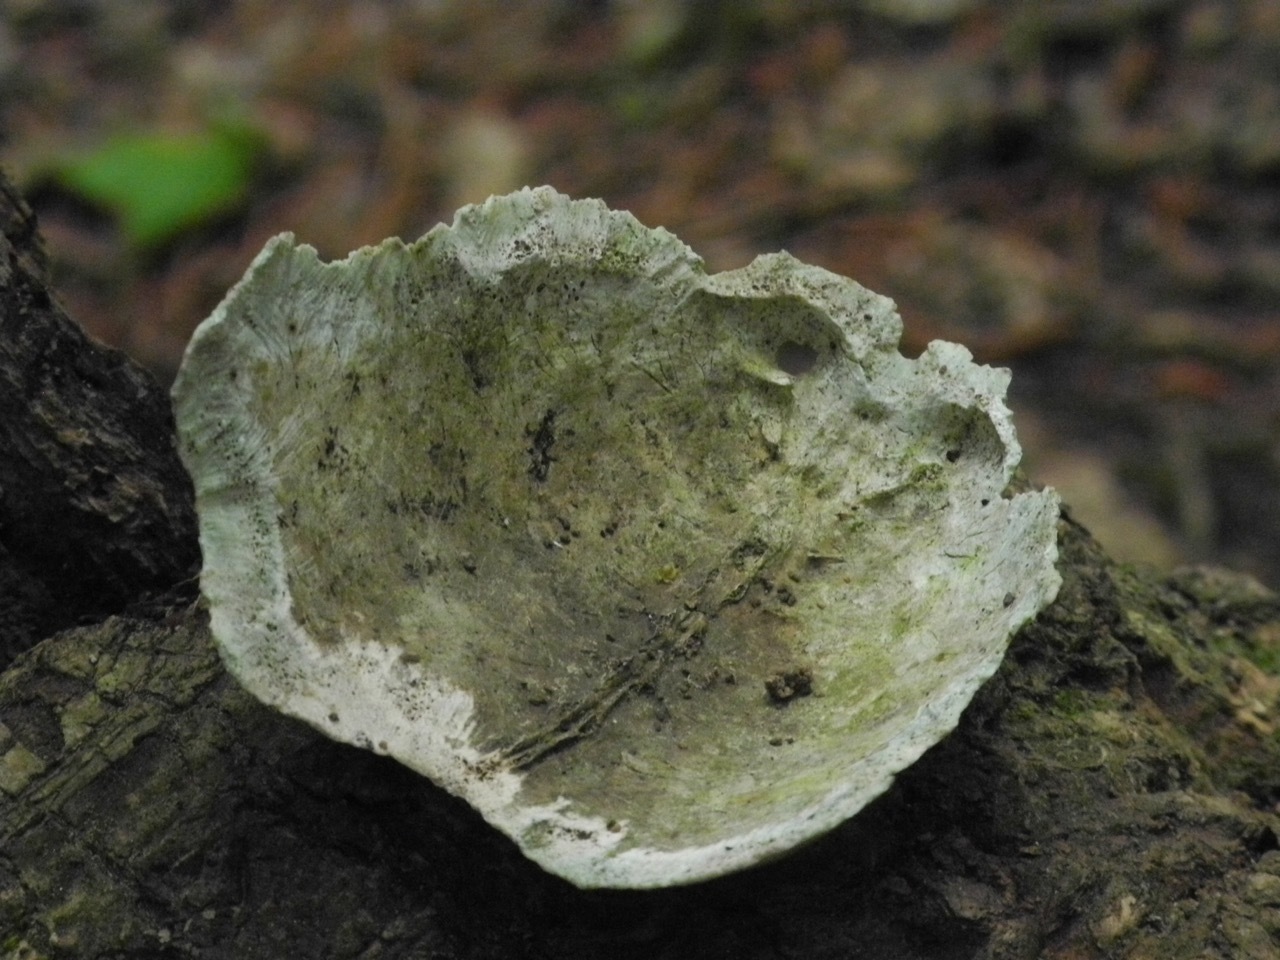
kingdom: Animalia
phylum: Chordata
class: Testudines
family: Emydidae
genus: Terrapene
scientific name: Terrapene carolina
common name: Common box turtle
